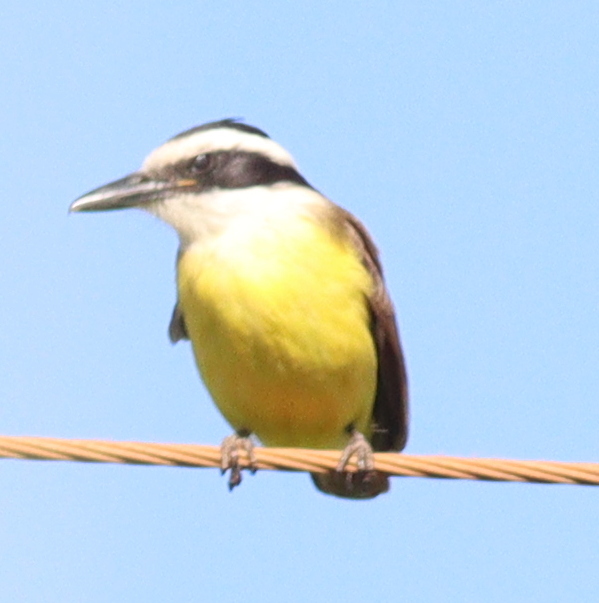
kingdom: Animalia
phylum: Chordata
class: Aves
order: Passeriformes
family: Tyrannidae
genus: Pitangus
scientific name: Pitangus sulphuratus
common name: Great kiskadee
